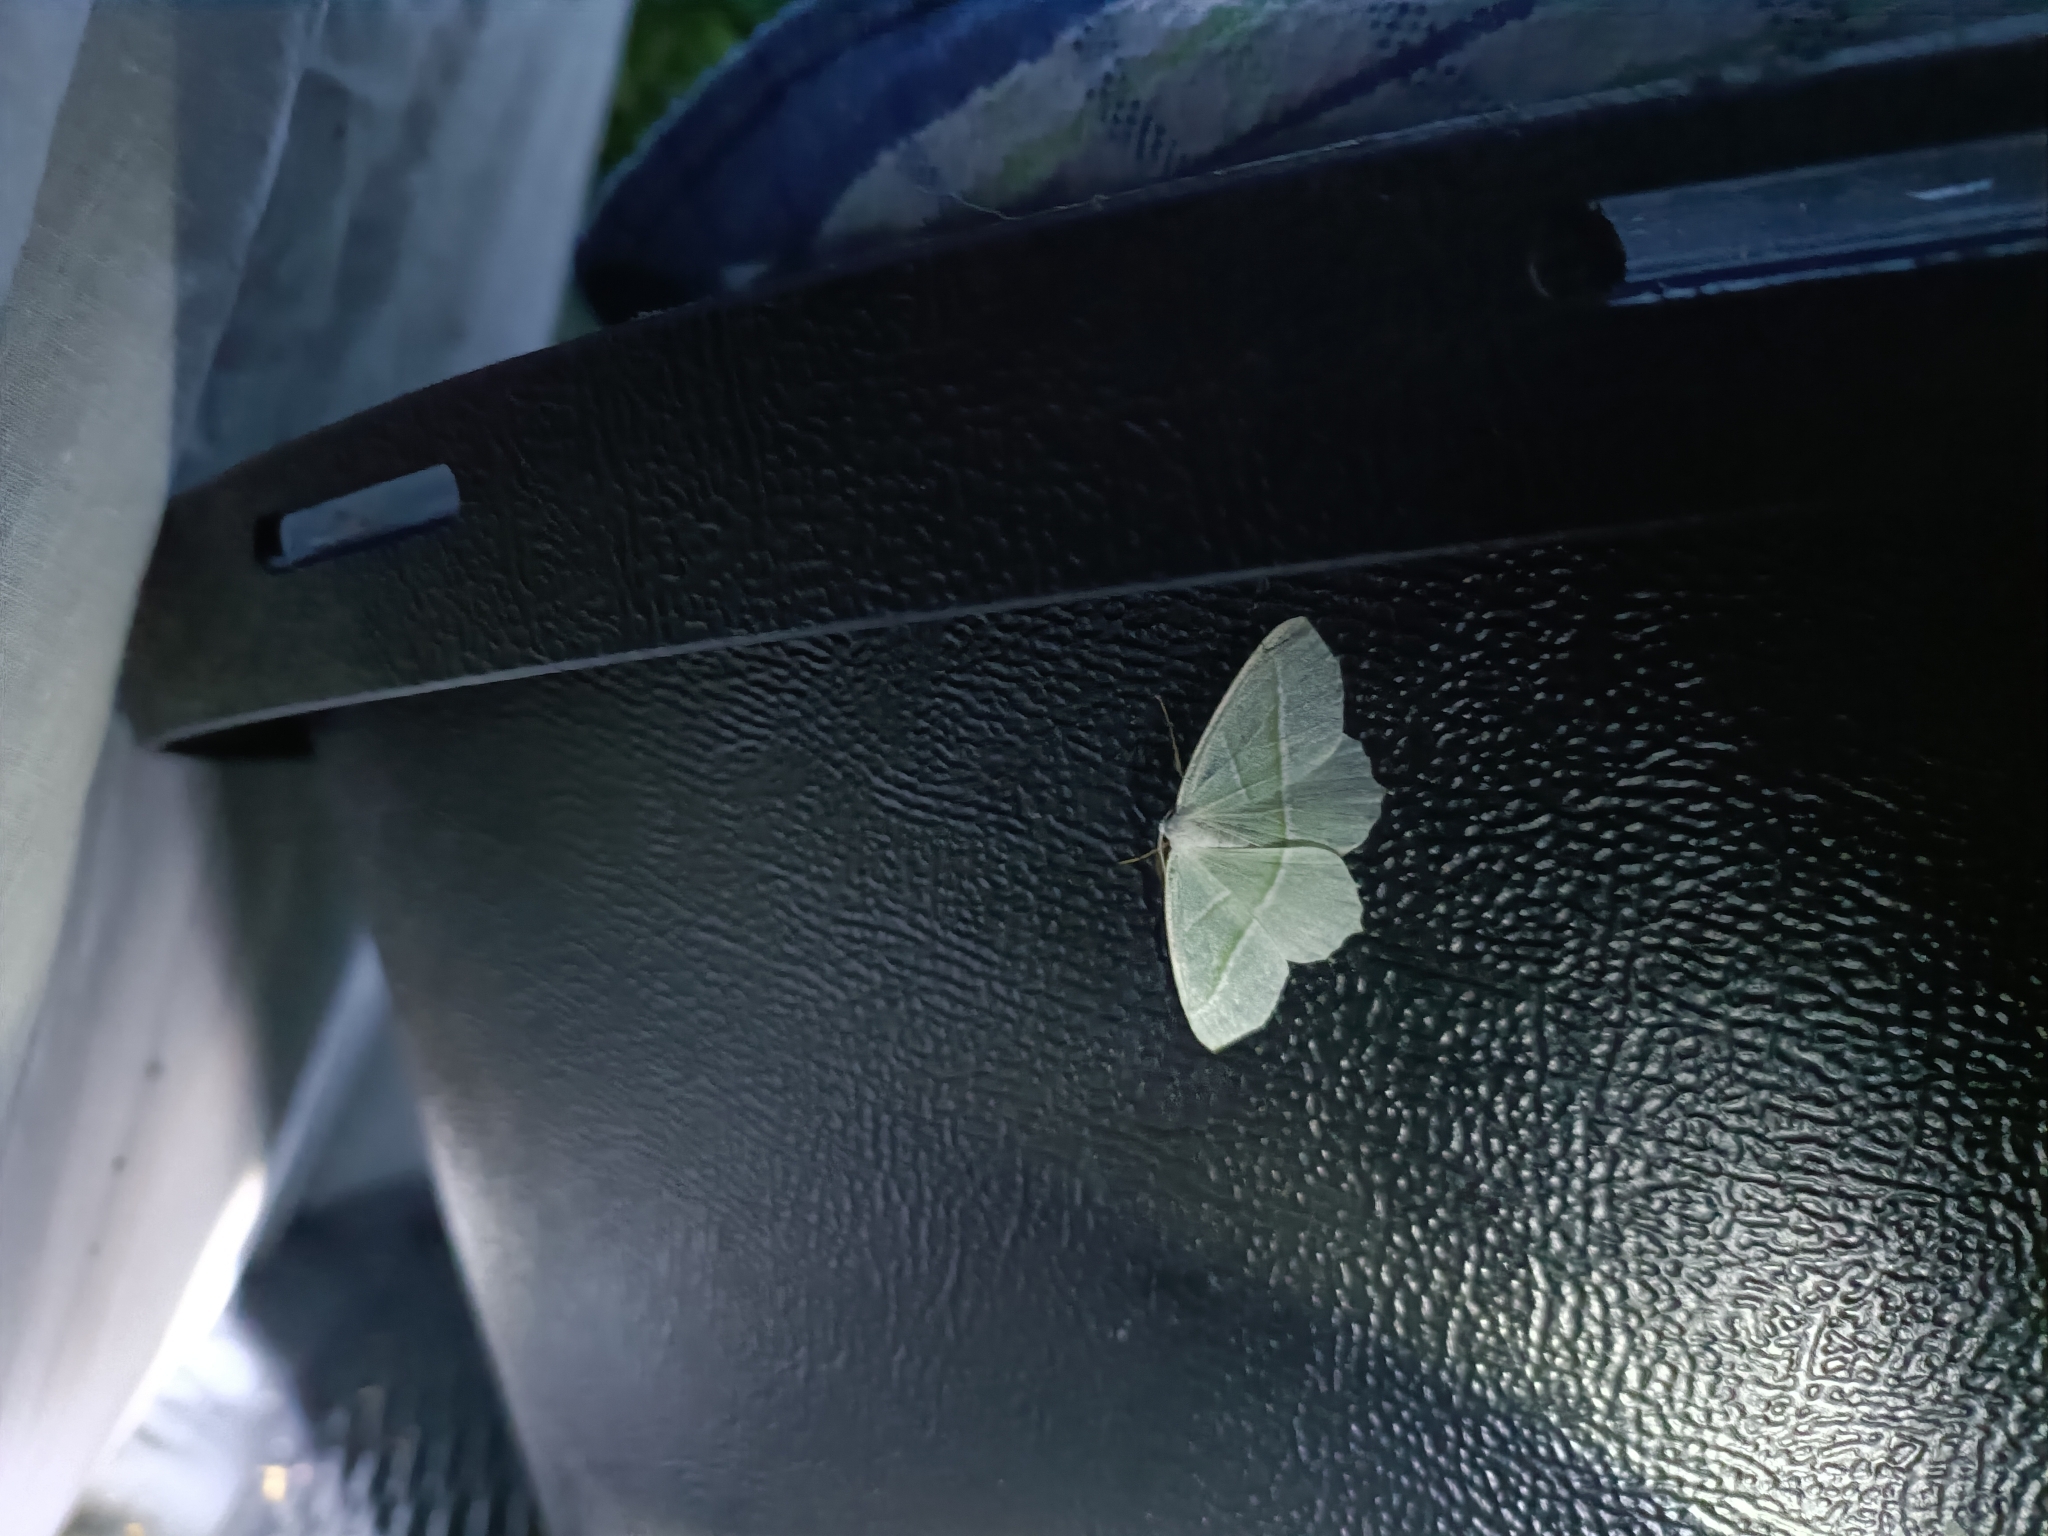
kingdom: Animalia
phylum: Arthropoda
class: Insecta
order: Lepidoptera
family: Geometridae
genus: Campaea
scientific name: Campaea margaritaria
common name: Light emerald
